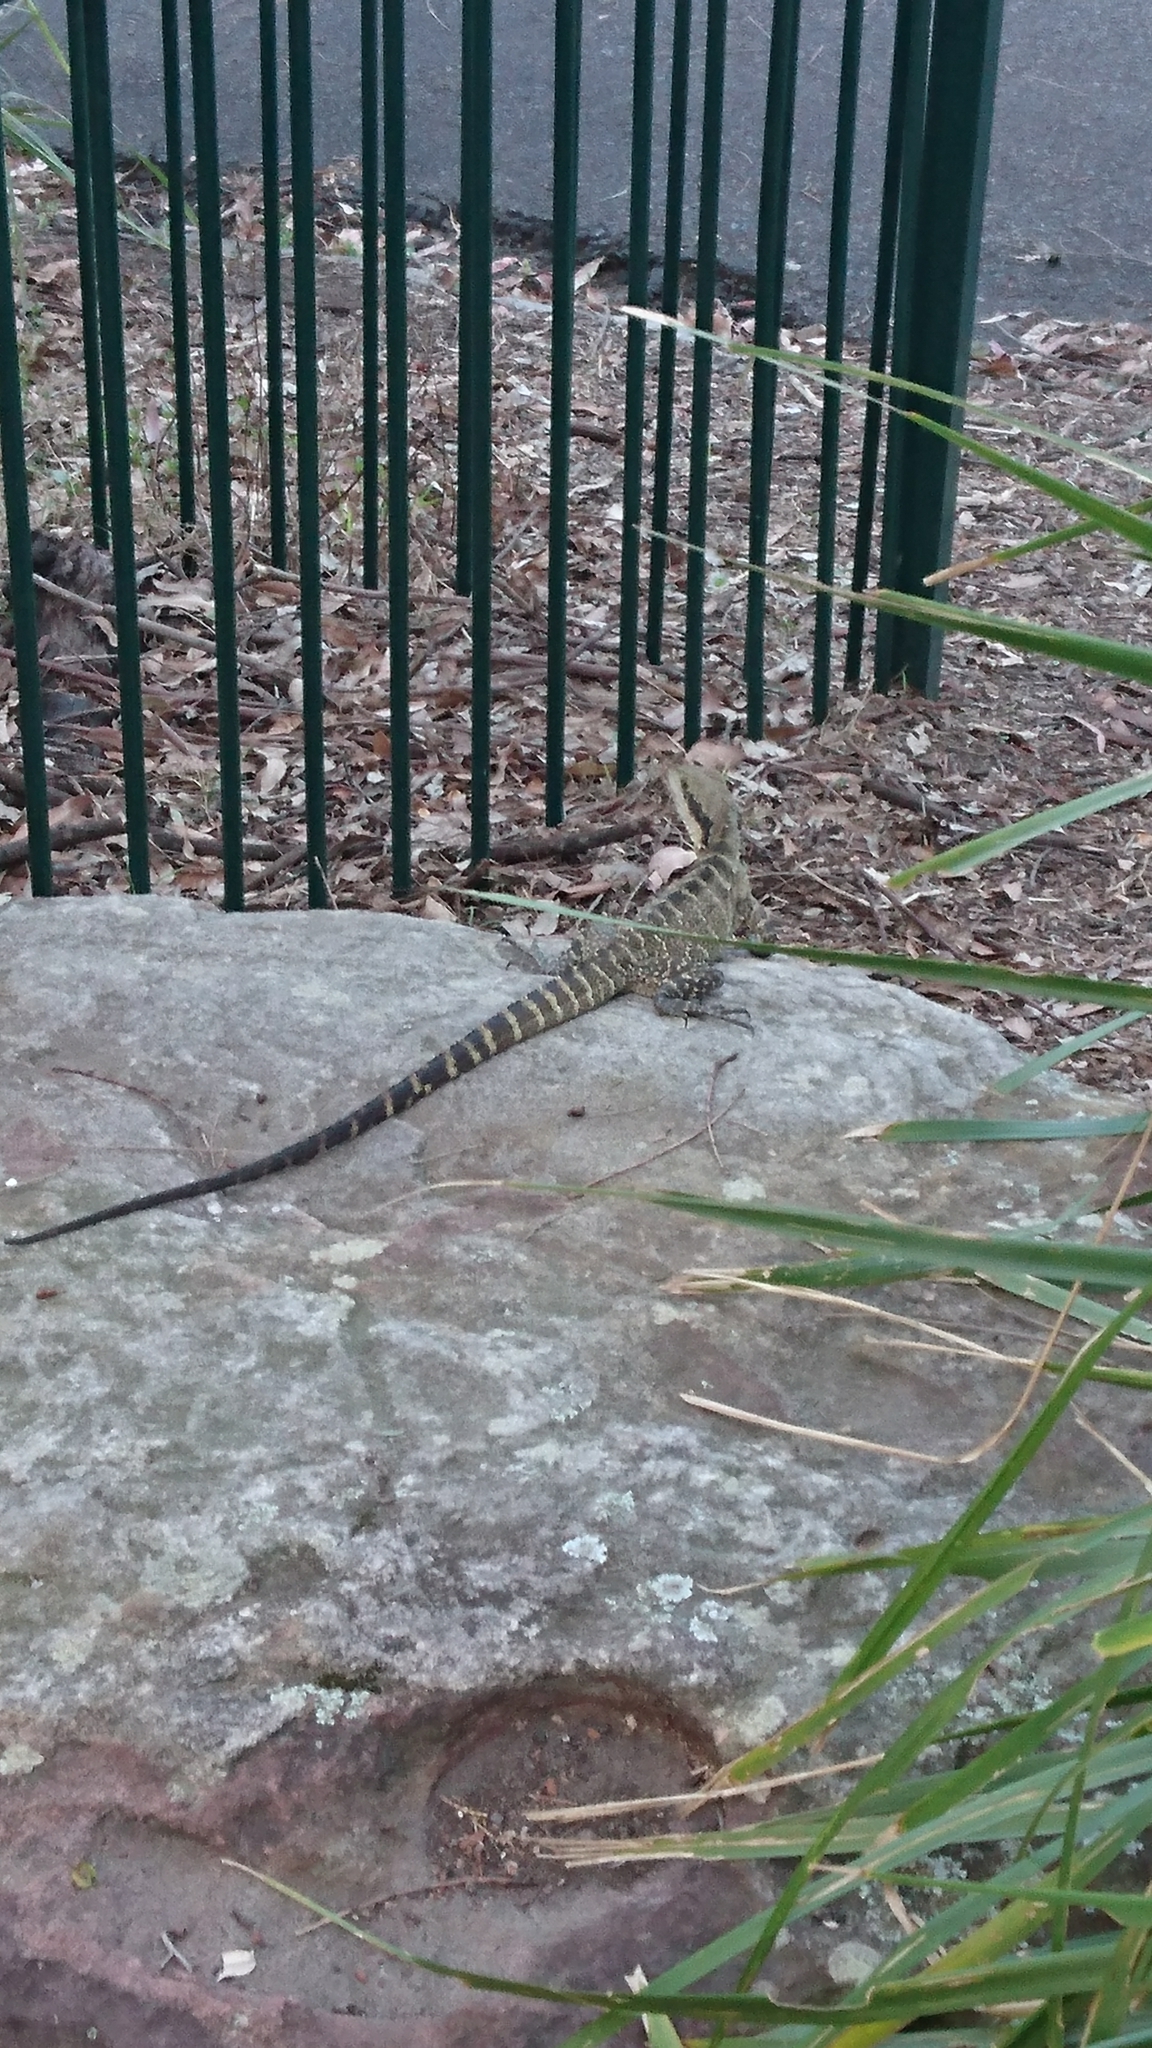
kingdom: Animalia
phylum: Chordata
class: Squamata
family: Agamidae
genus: Intellagama
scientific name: Intellagama lesueurii
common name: Eastern water dragon
